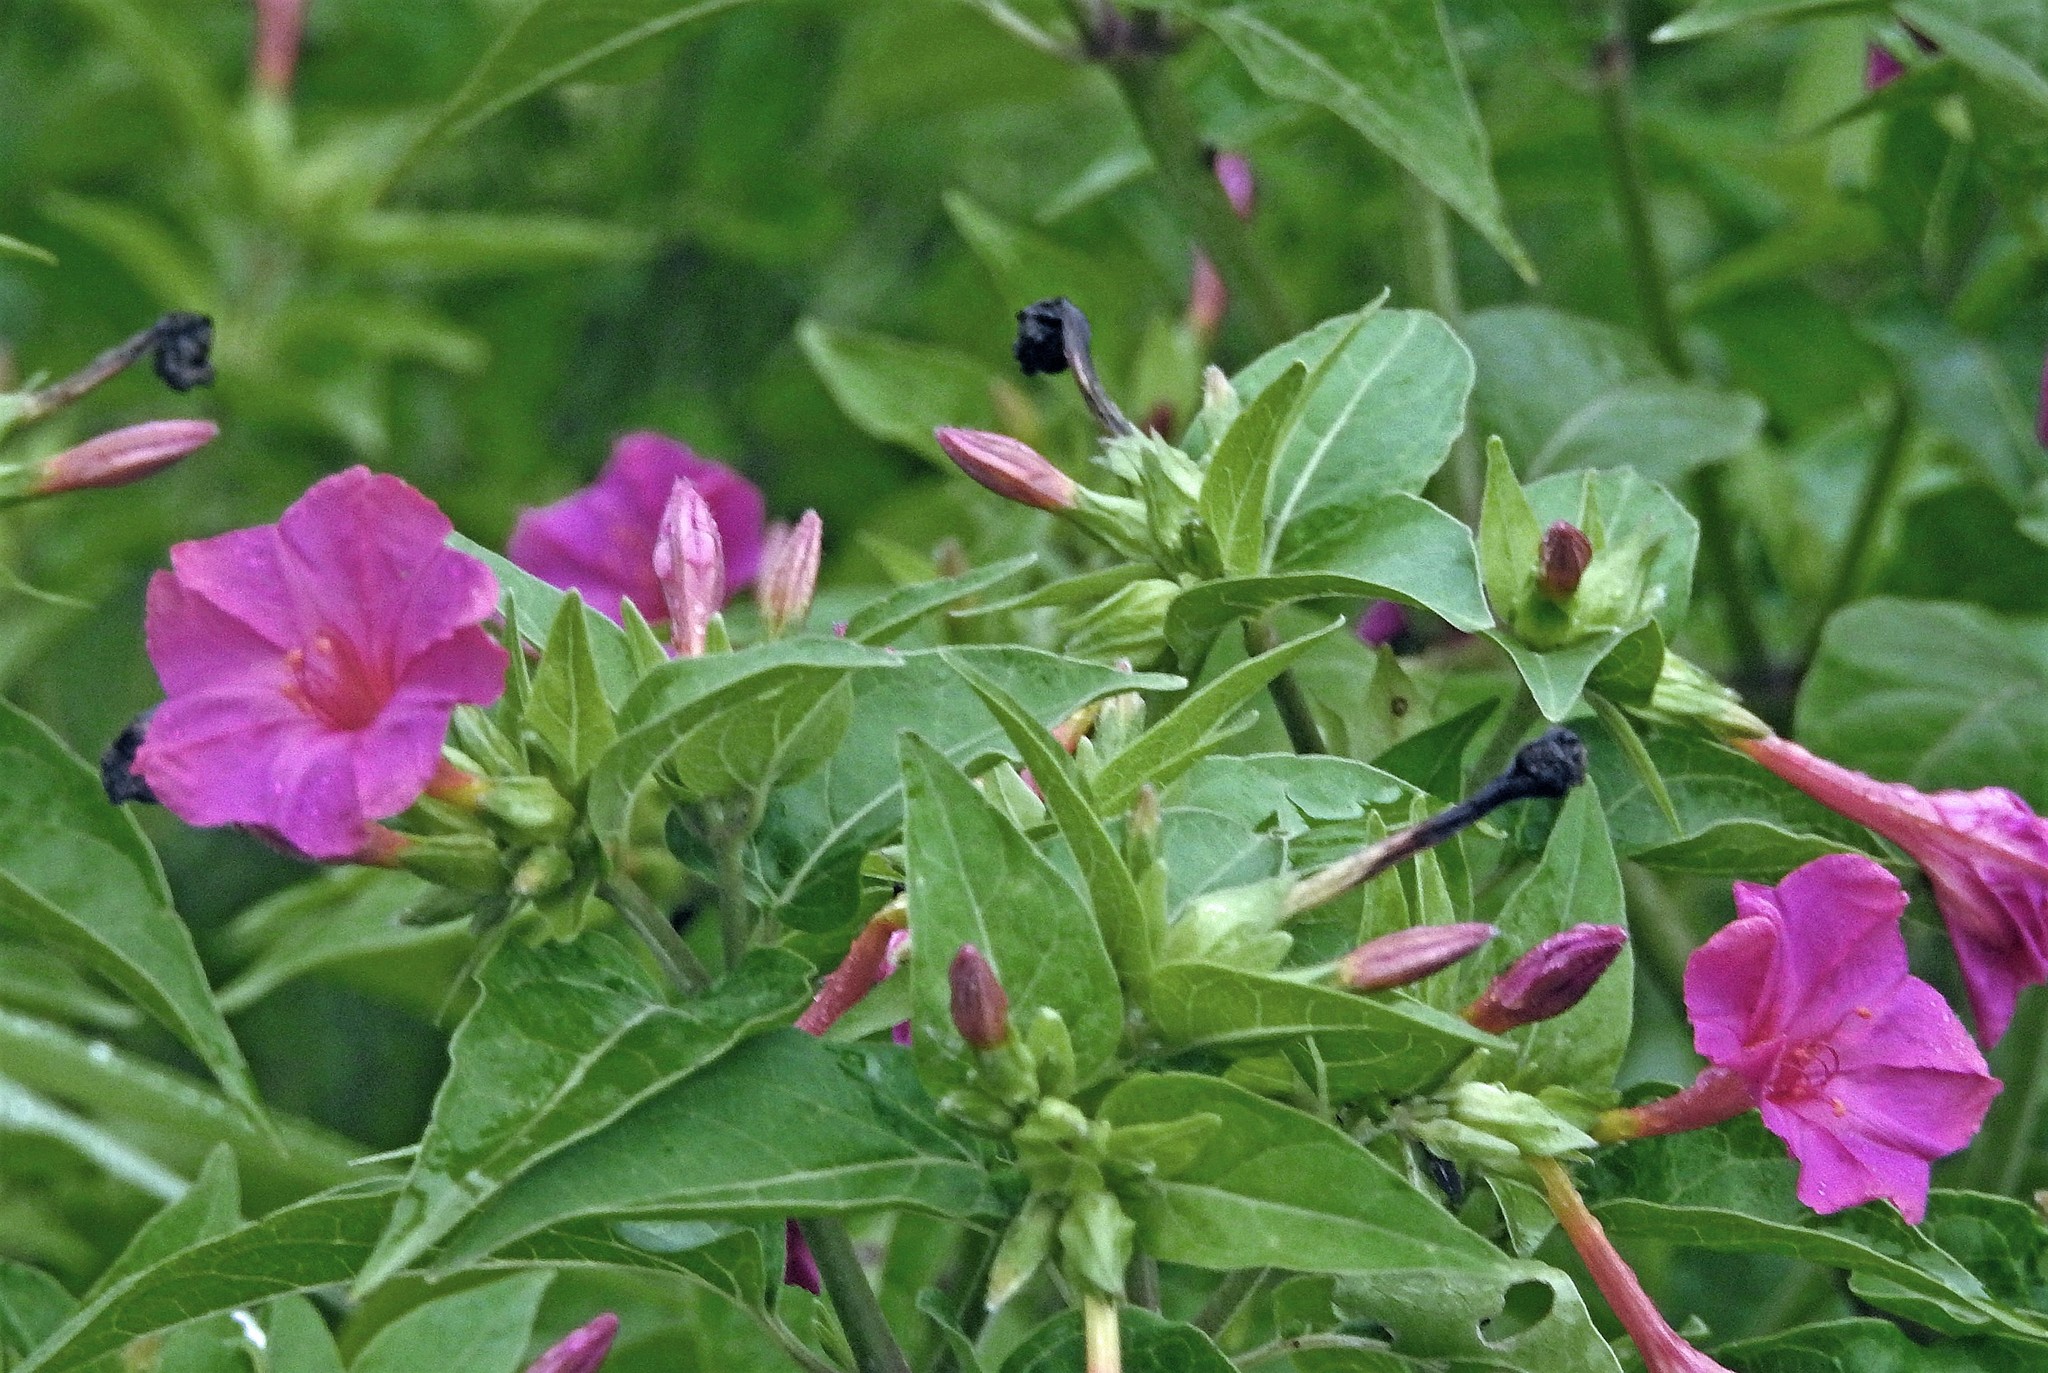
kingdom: Plantae
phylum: Tracheophyta
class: Magnoliopsida
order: Caryophyllales
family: Nyctaginaceae
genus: Mirabilis
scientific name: Mirabilis jalapa
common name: Marvel-of-peru
